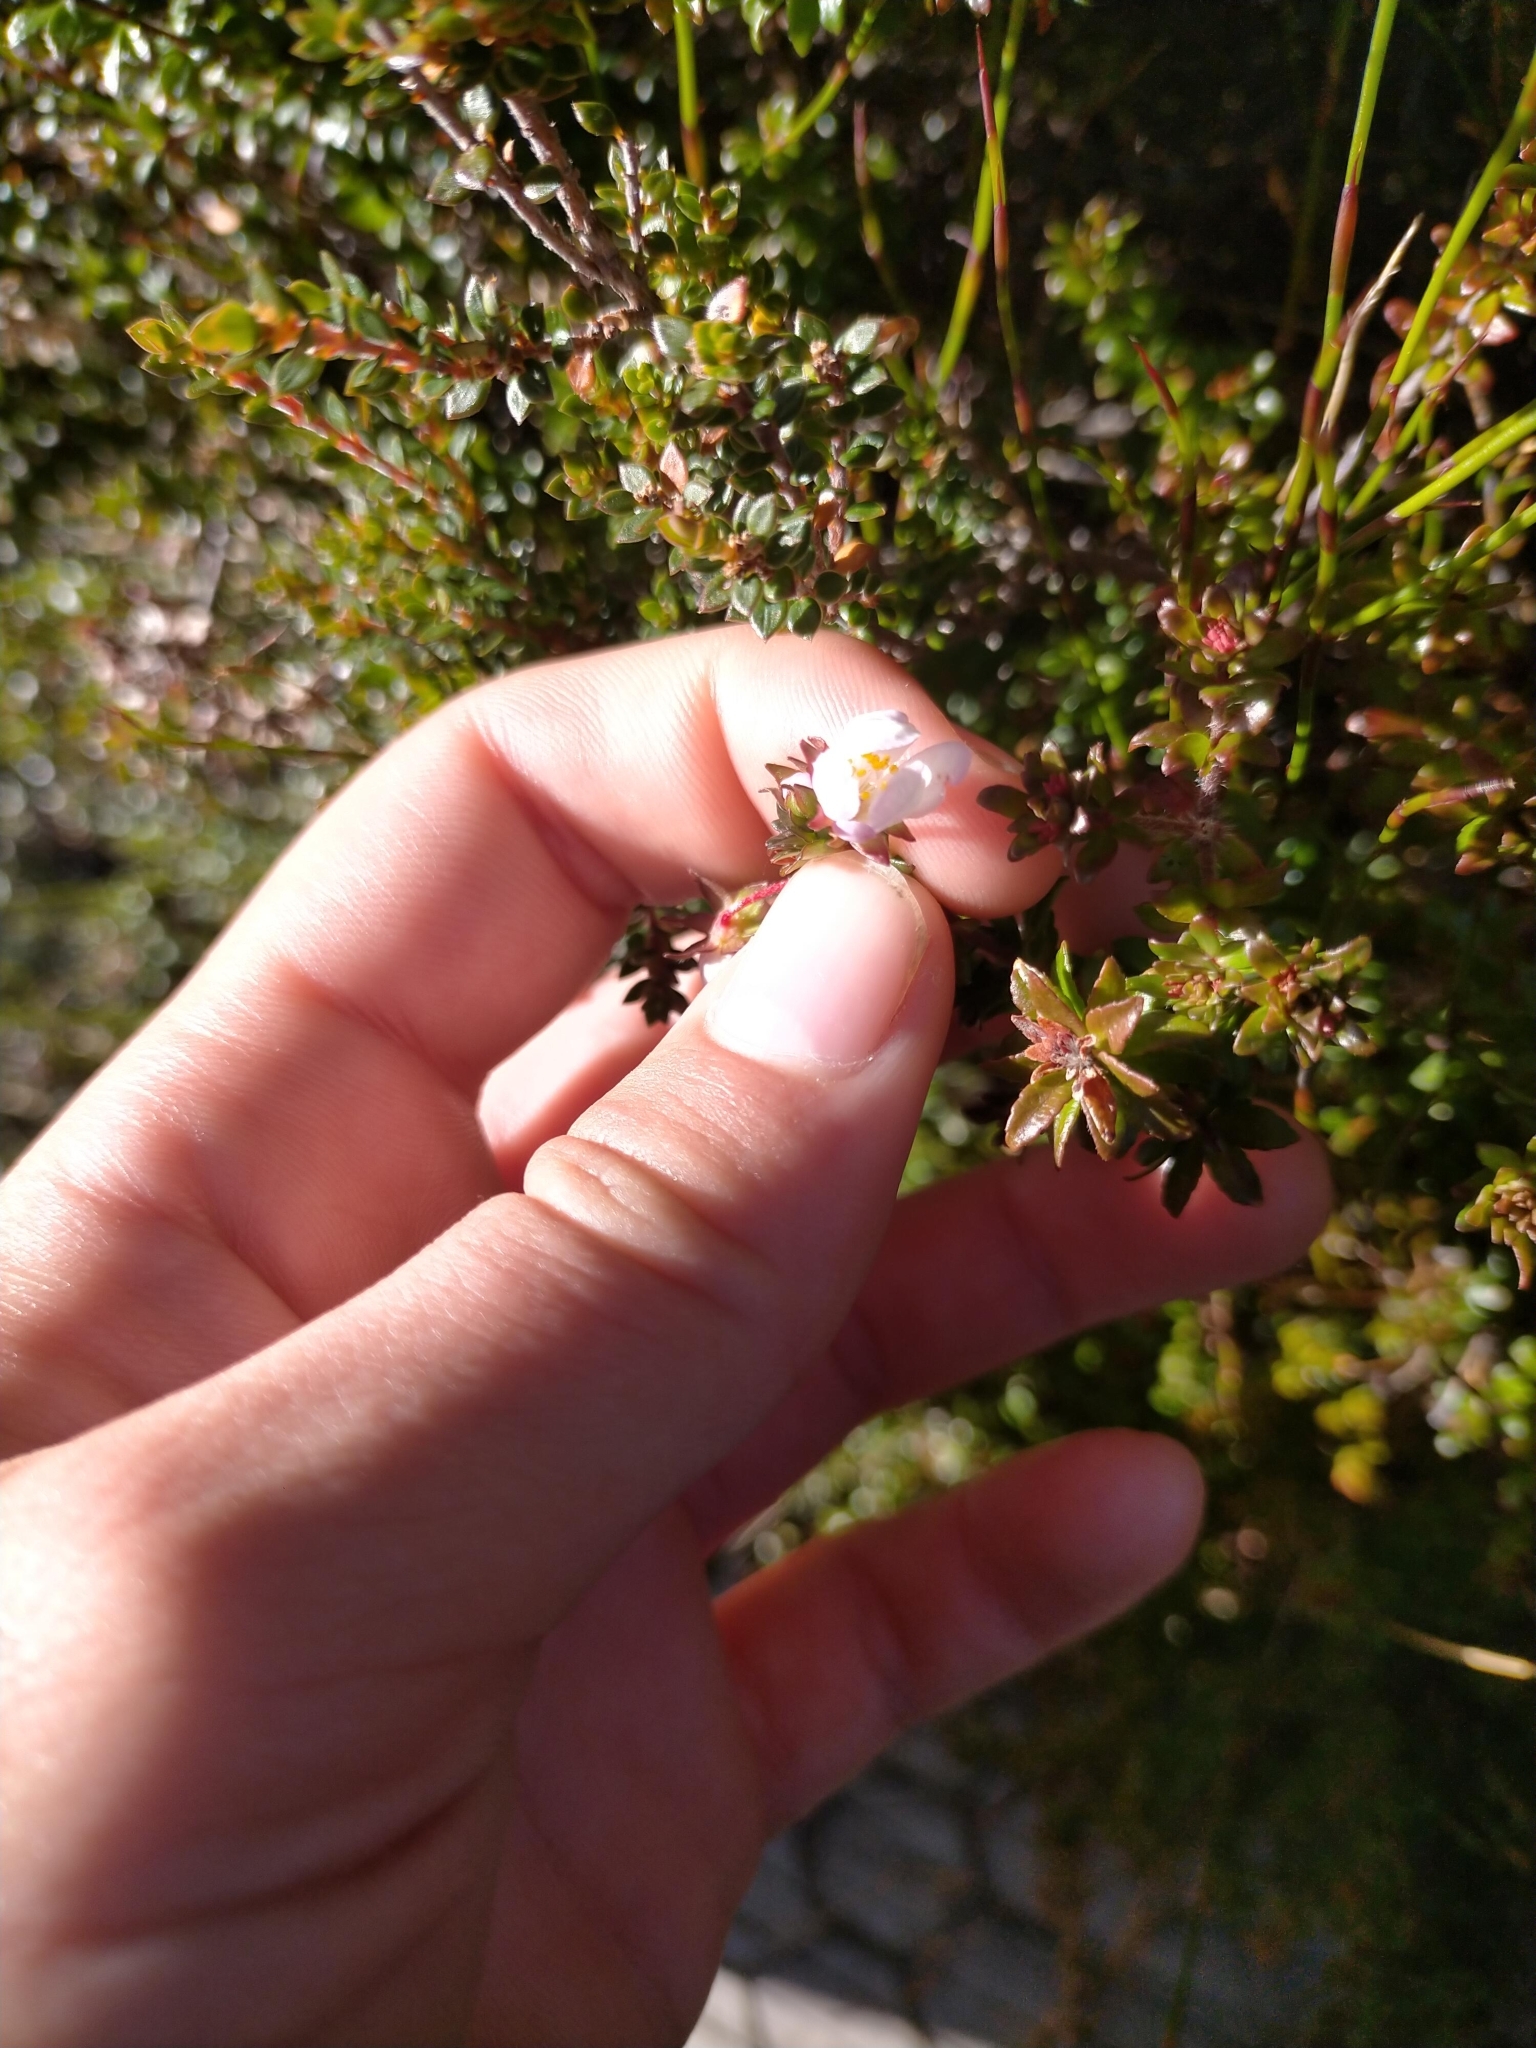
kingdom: Plantae
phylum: Tracheophyta
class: Magnoliopsida
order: Oxalidales
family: Cunoniaceae
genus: Bauera
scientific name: Bauera rubioides
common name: River-rose
